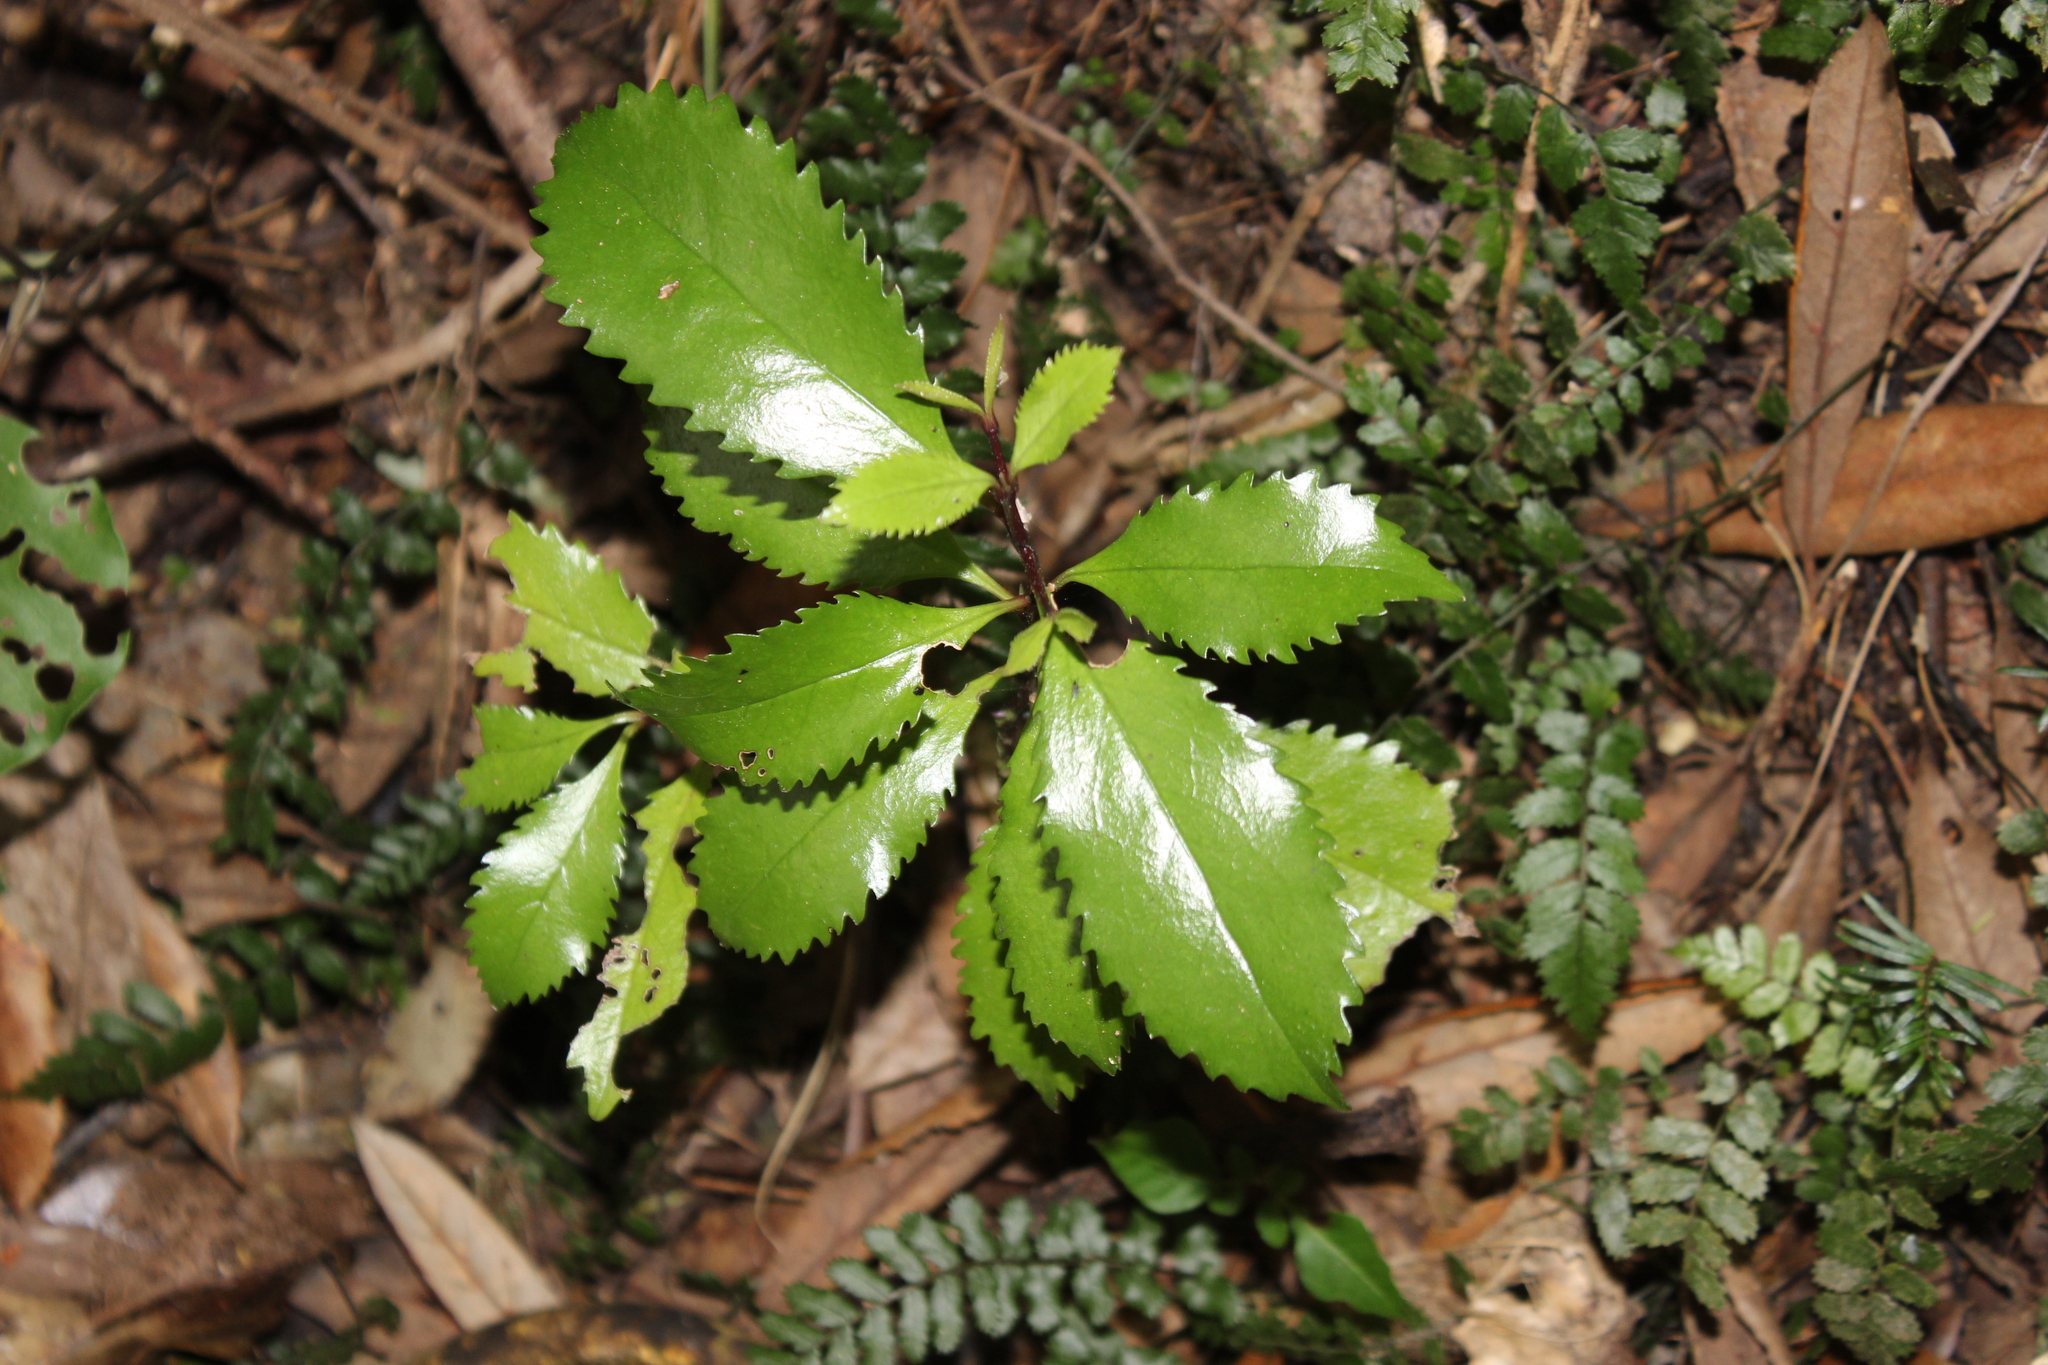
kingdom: Plantae
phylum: Tracheophyta
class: Magnoliopsida
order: Laurales
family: Atherospermataceae
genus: Laurelia
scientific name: Laurelia novae-zelandiae
